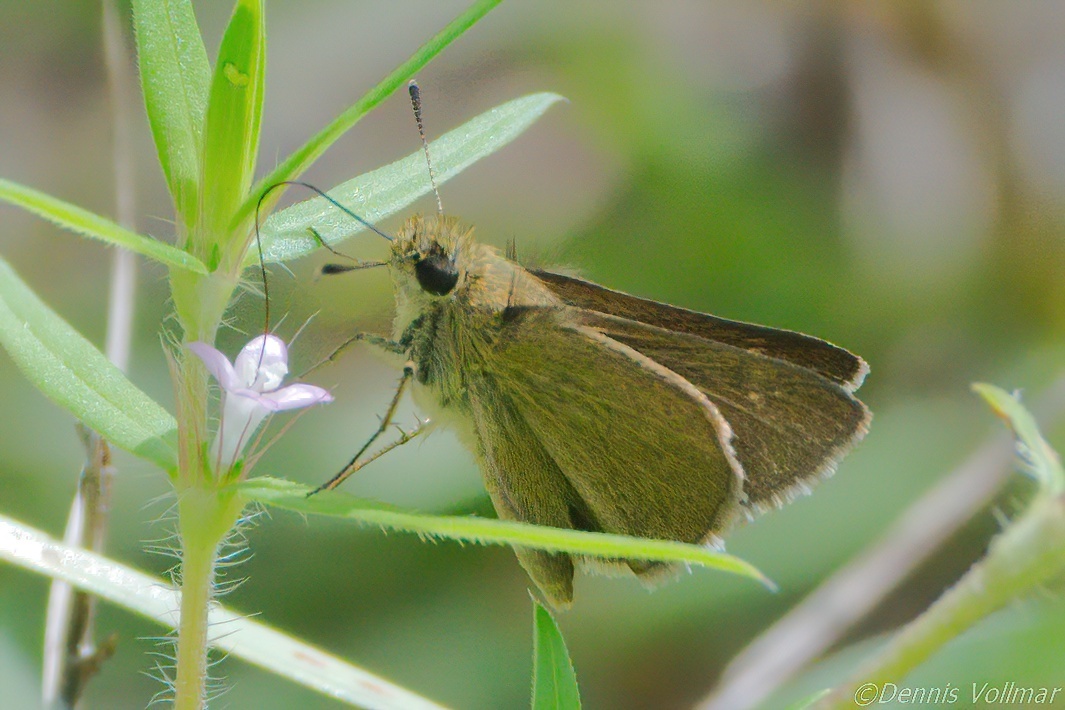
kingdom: Animalia
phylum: Arthropoda
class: Insecta
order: Lepidoptera
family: Hesperiidae
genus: Nastra
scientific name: Nastra
